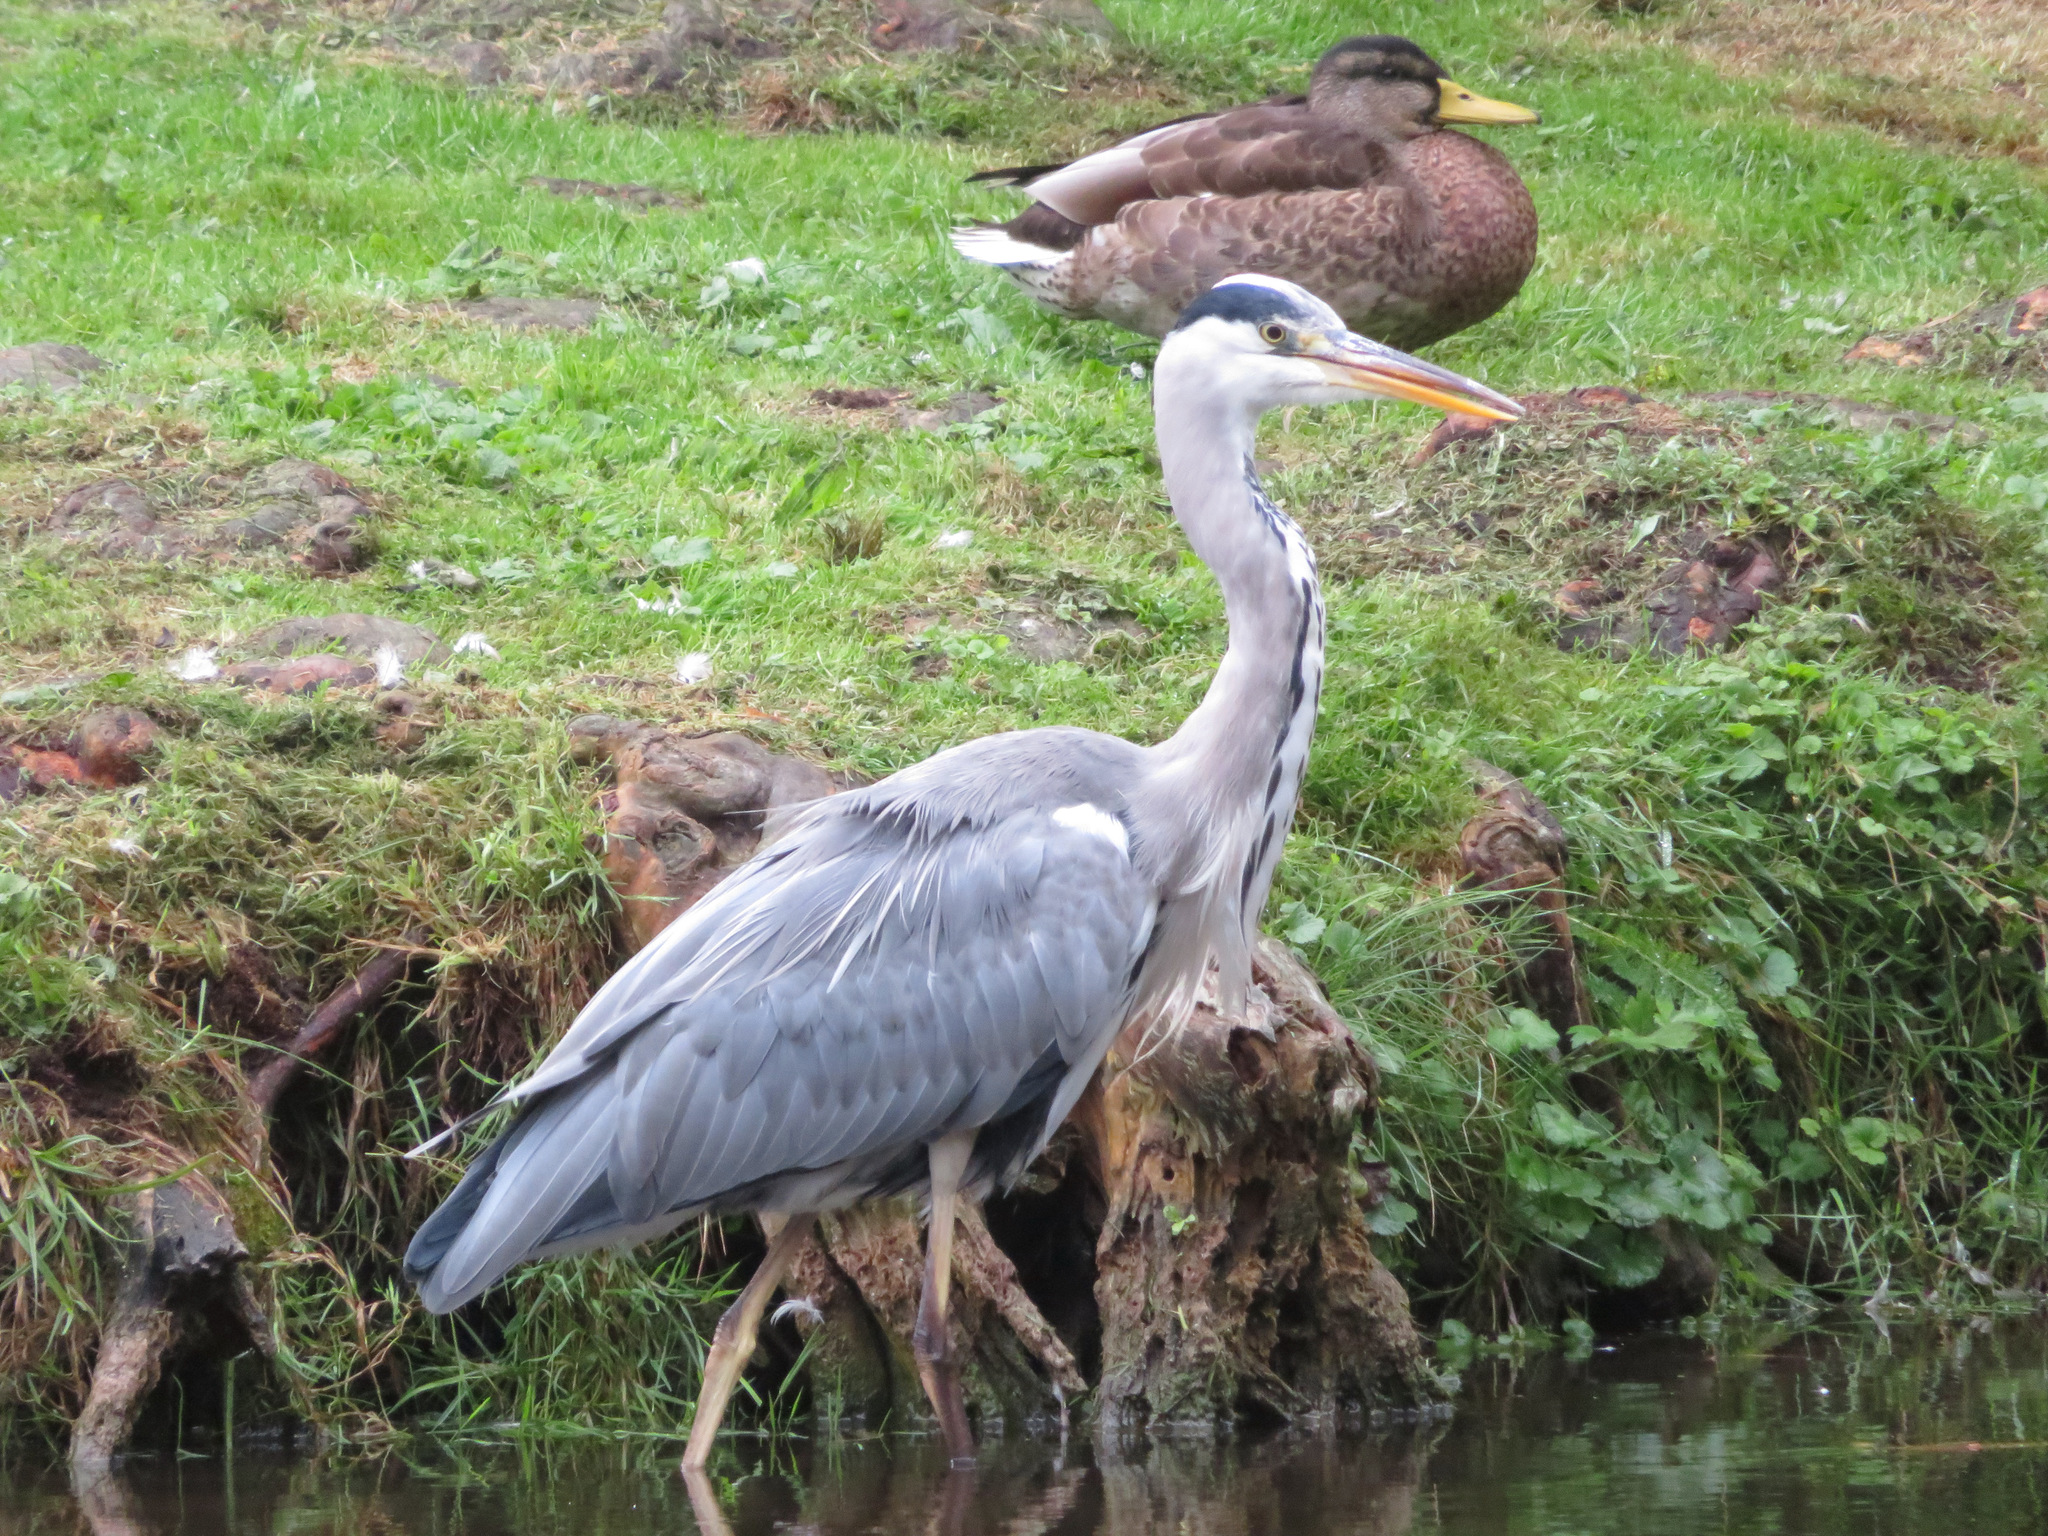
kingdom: Animalia
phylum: Chordata
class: Aves
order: Pelecaniformes
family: Ardeidae
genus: Ardea
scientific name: Ardea cinerea
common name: Grey heron
